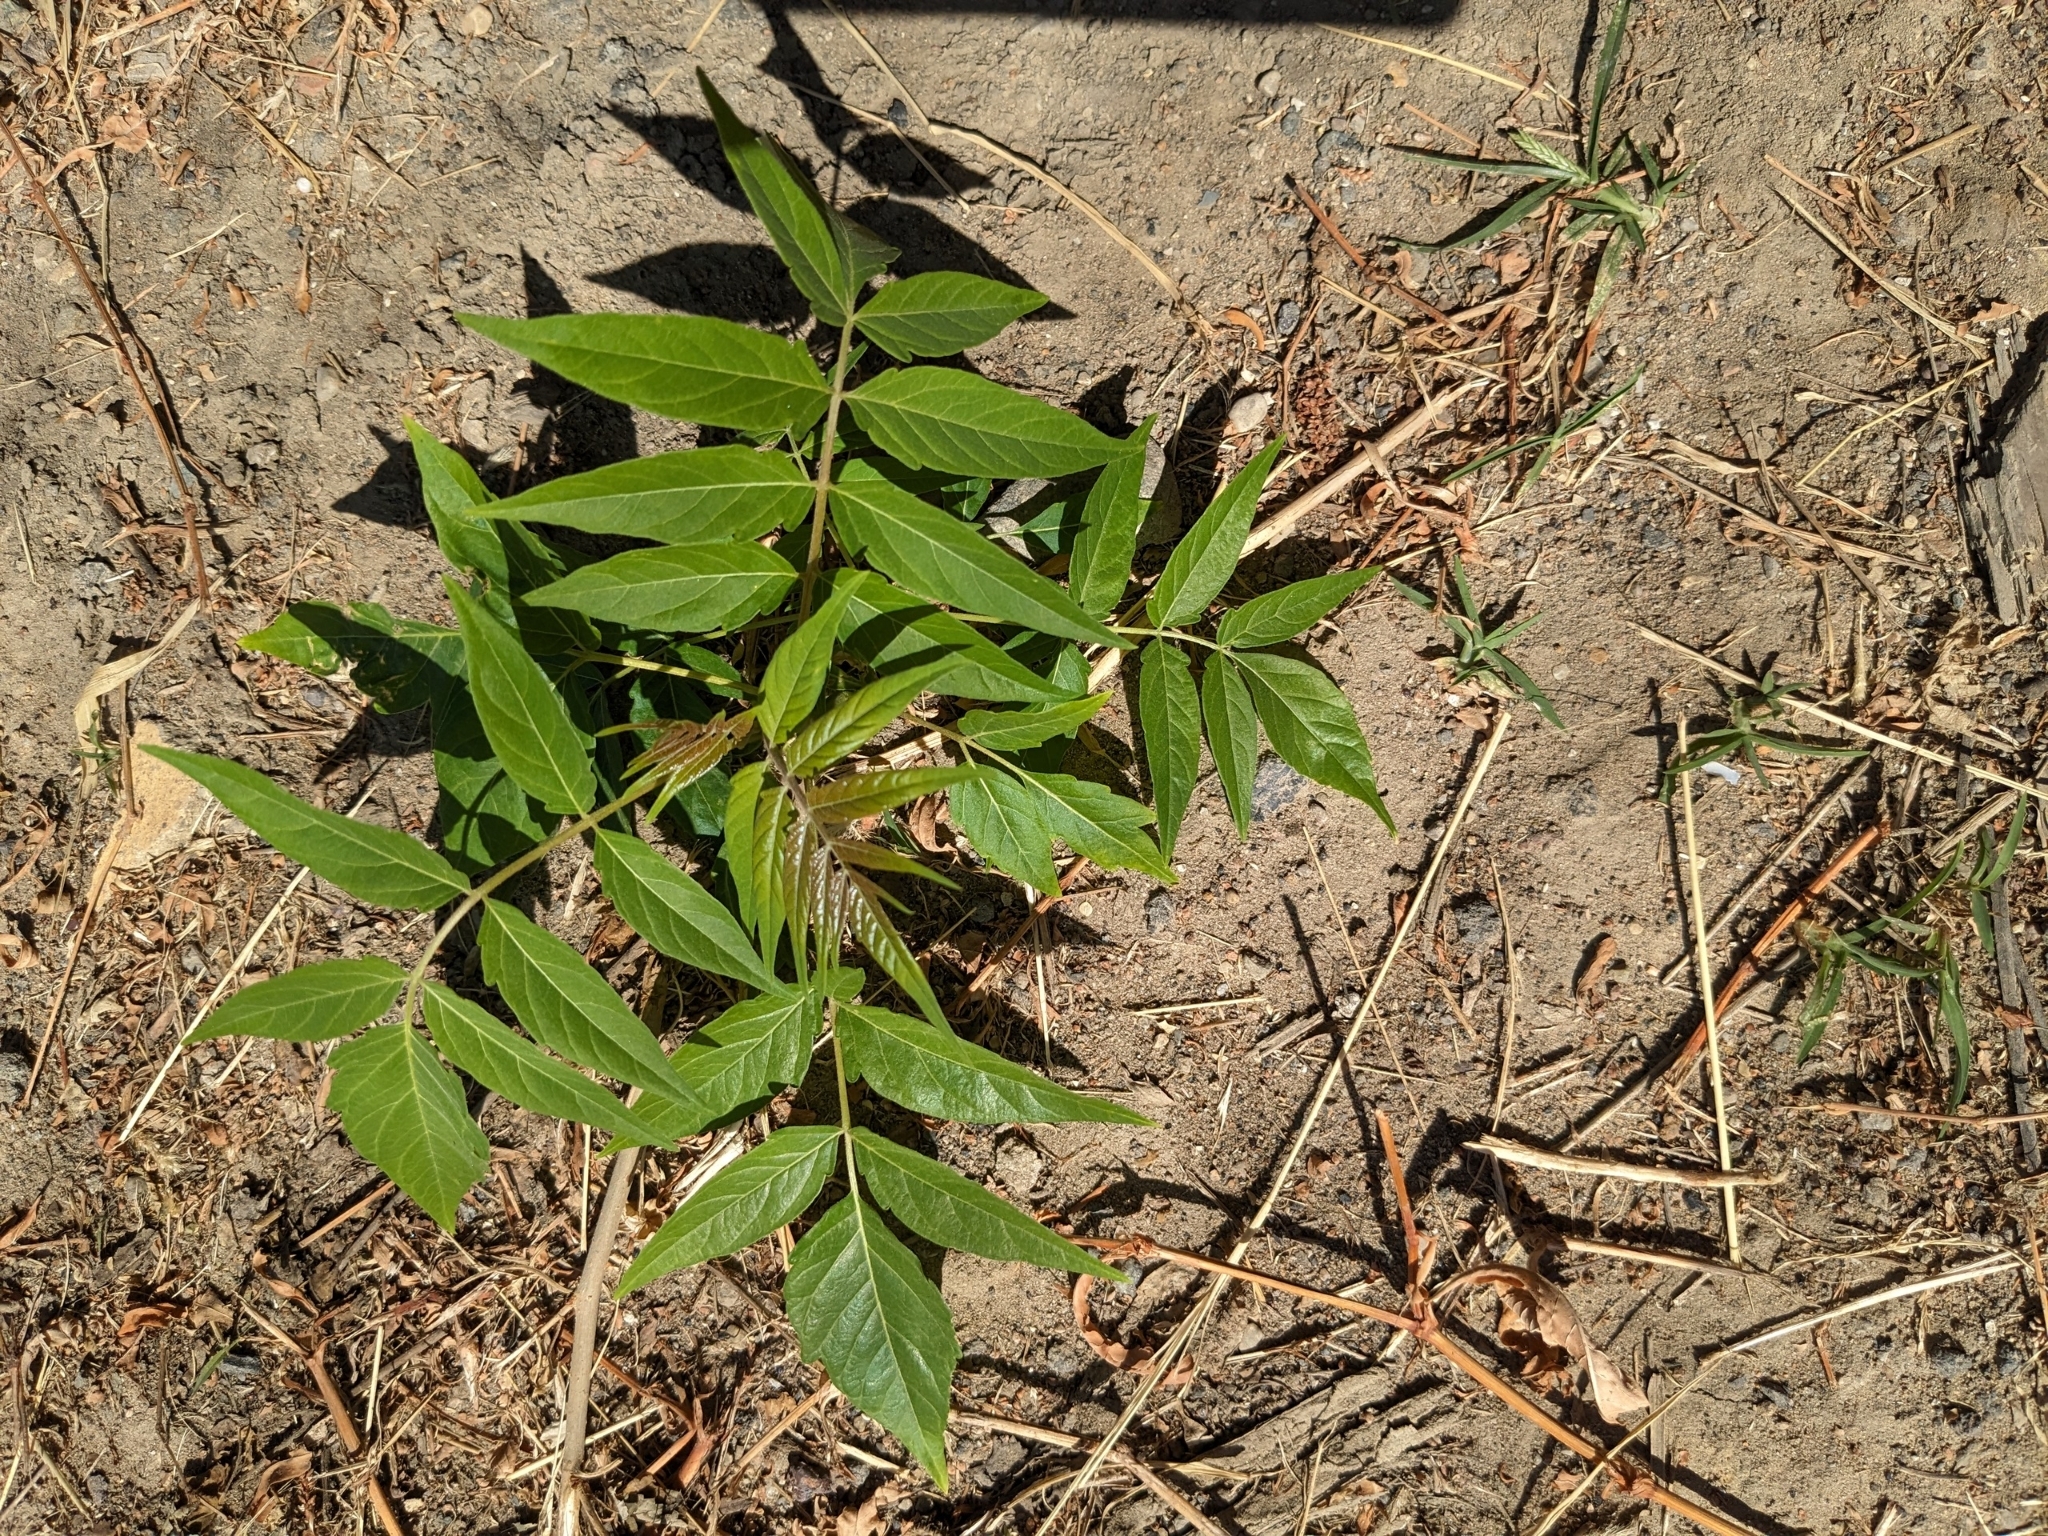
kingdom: Plantae
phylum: Tracheophyta
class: Magnoliopsida
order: Sapindales
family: Simaroubaceae
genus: Ailanthus
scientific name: Ailanthus altissima
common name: Tree-of-heaven
